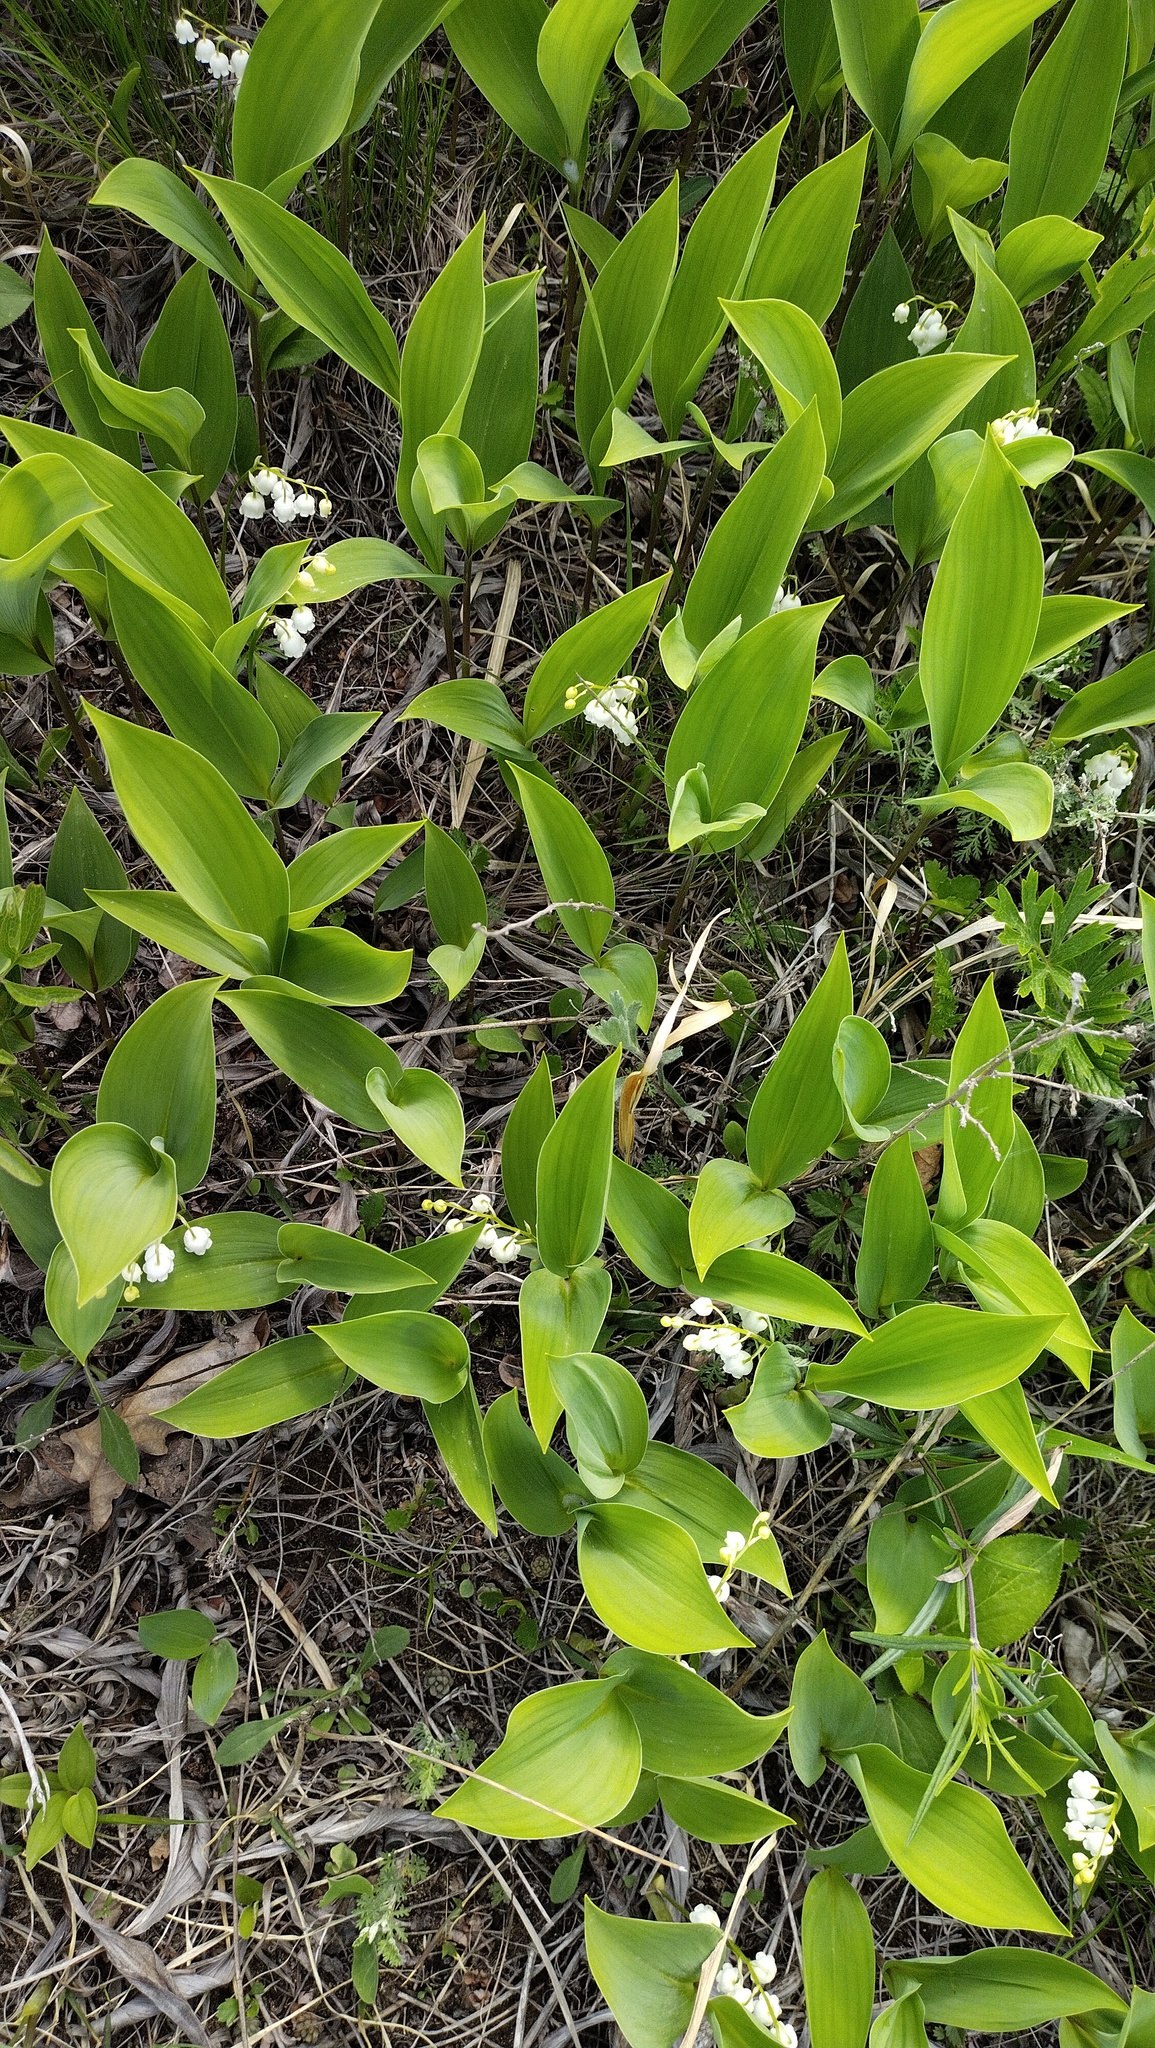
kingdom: Plantae
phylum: Tracheophyta
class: Liliopsida
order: Asparagales
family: Asparagaceae
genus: Convallaria
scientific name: Convallaria keiskei
